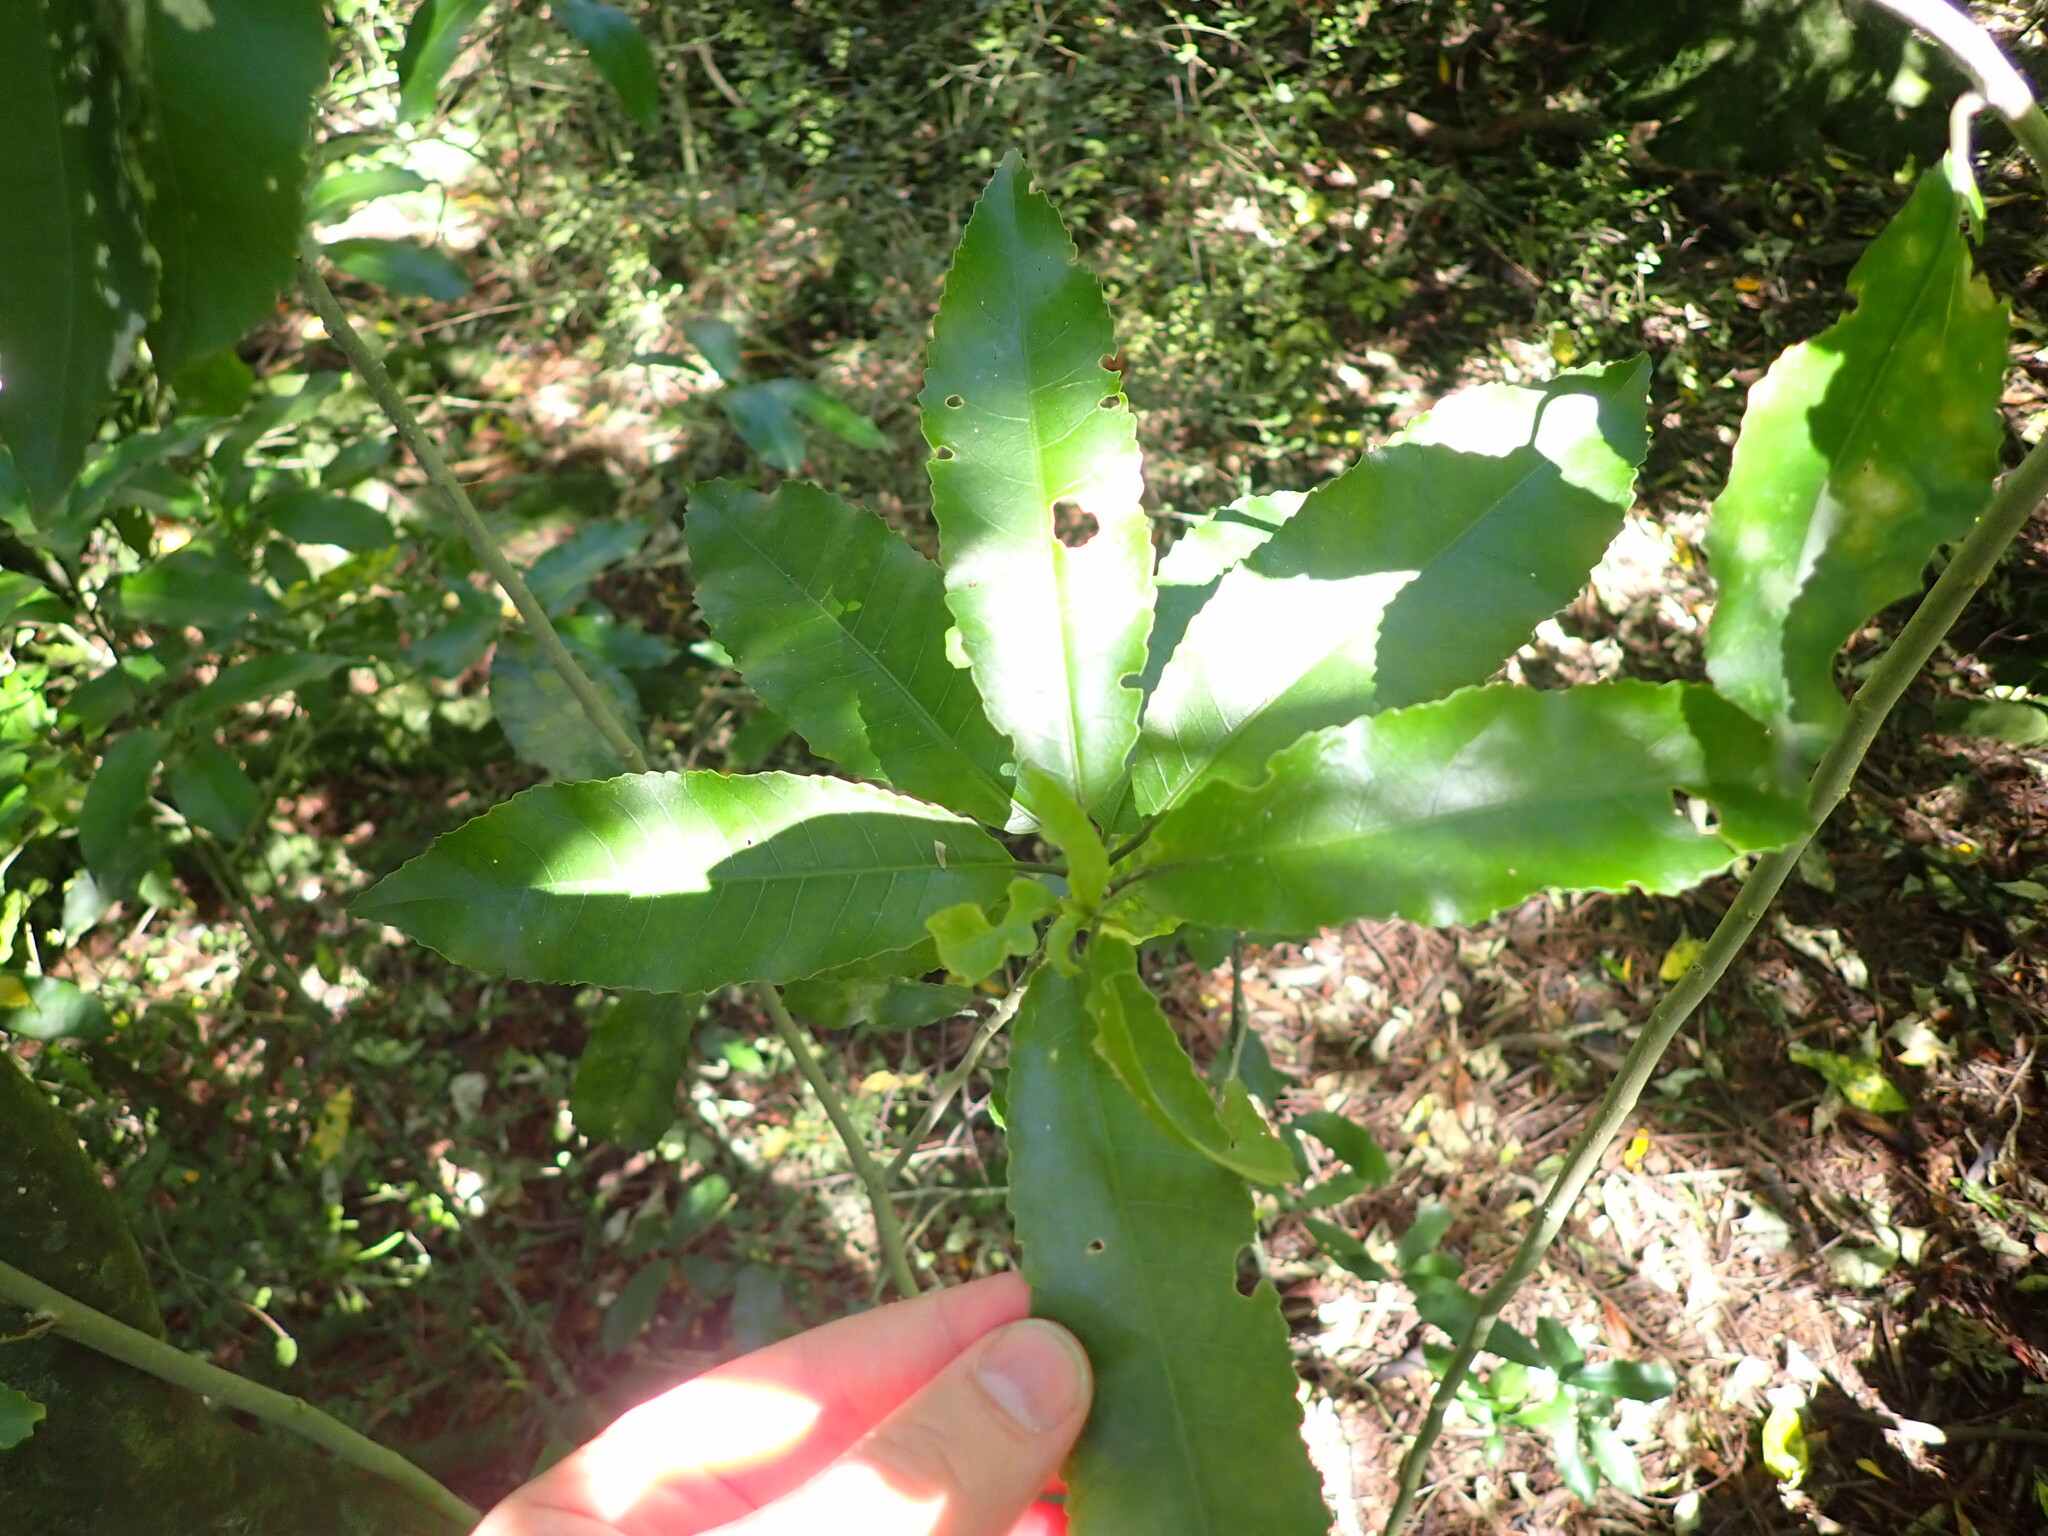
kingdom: Plantae
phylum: Tracheophyta
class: Magnoliopsida
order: Malpighiales
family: Violaceae
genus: Melicytus
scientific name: Melicytus ramiflorus
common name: Mahoe
